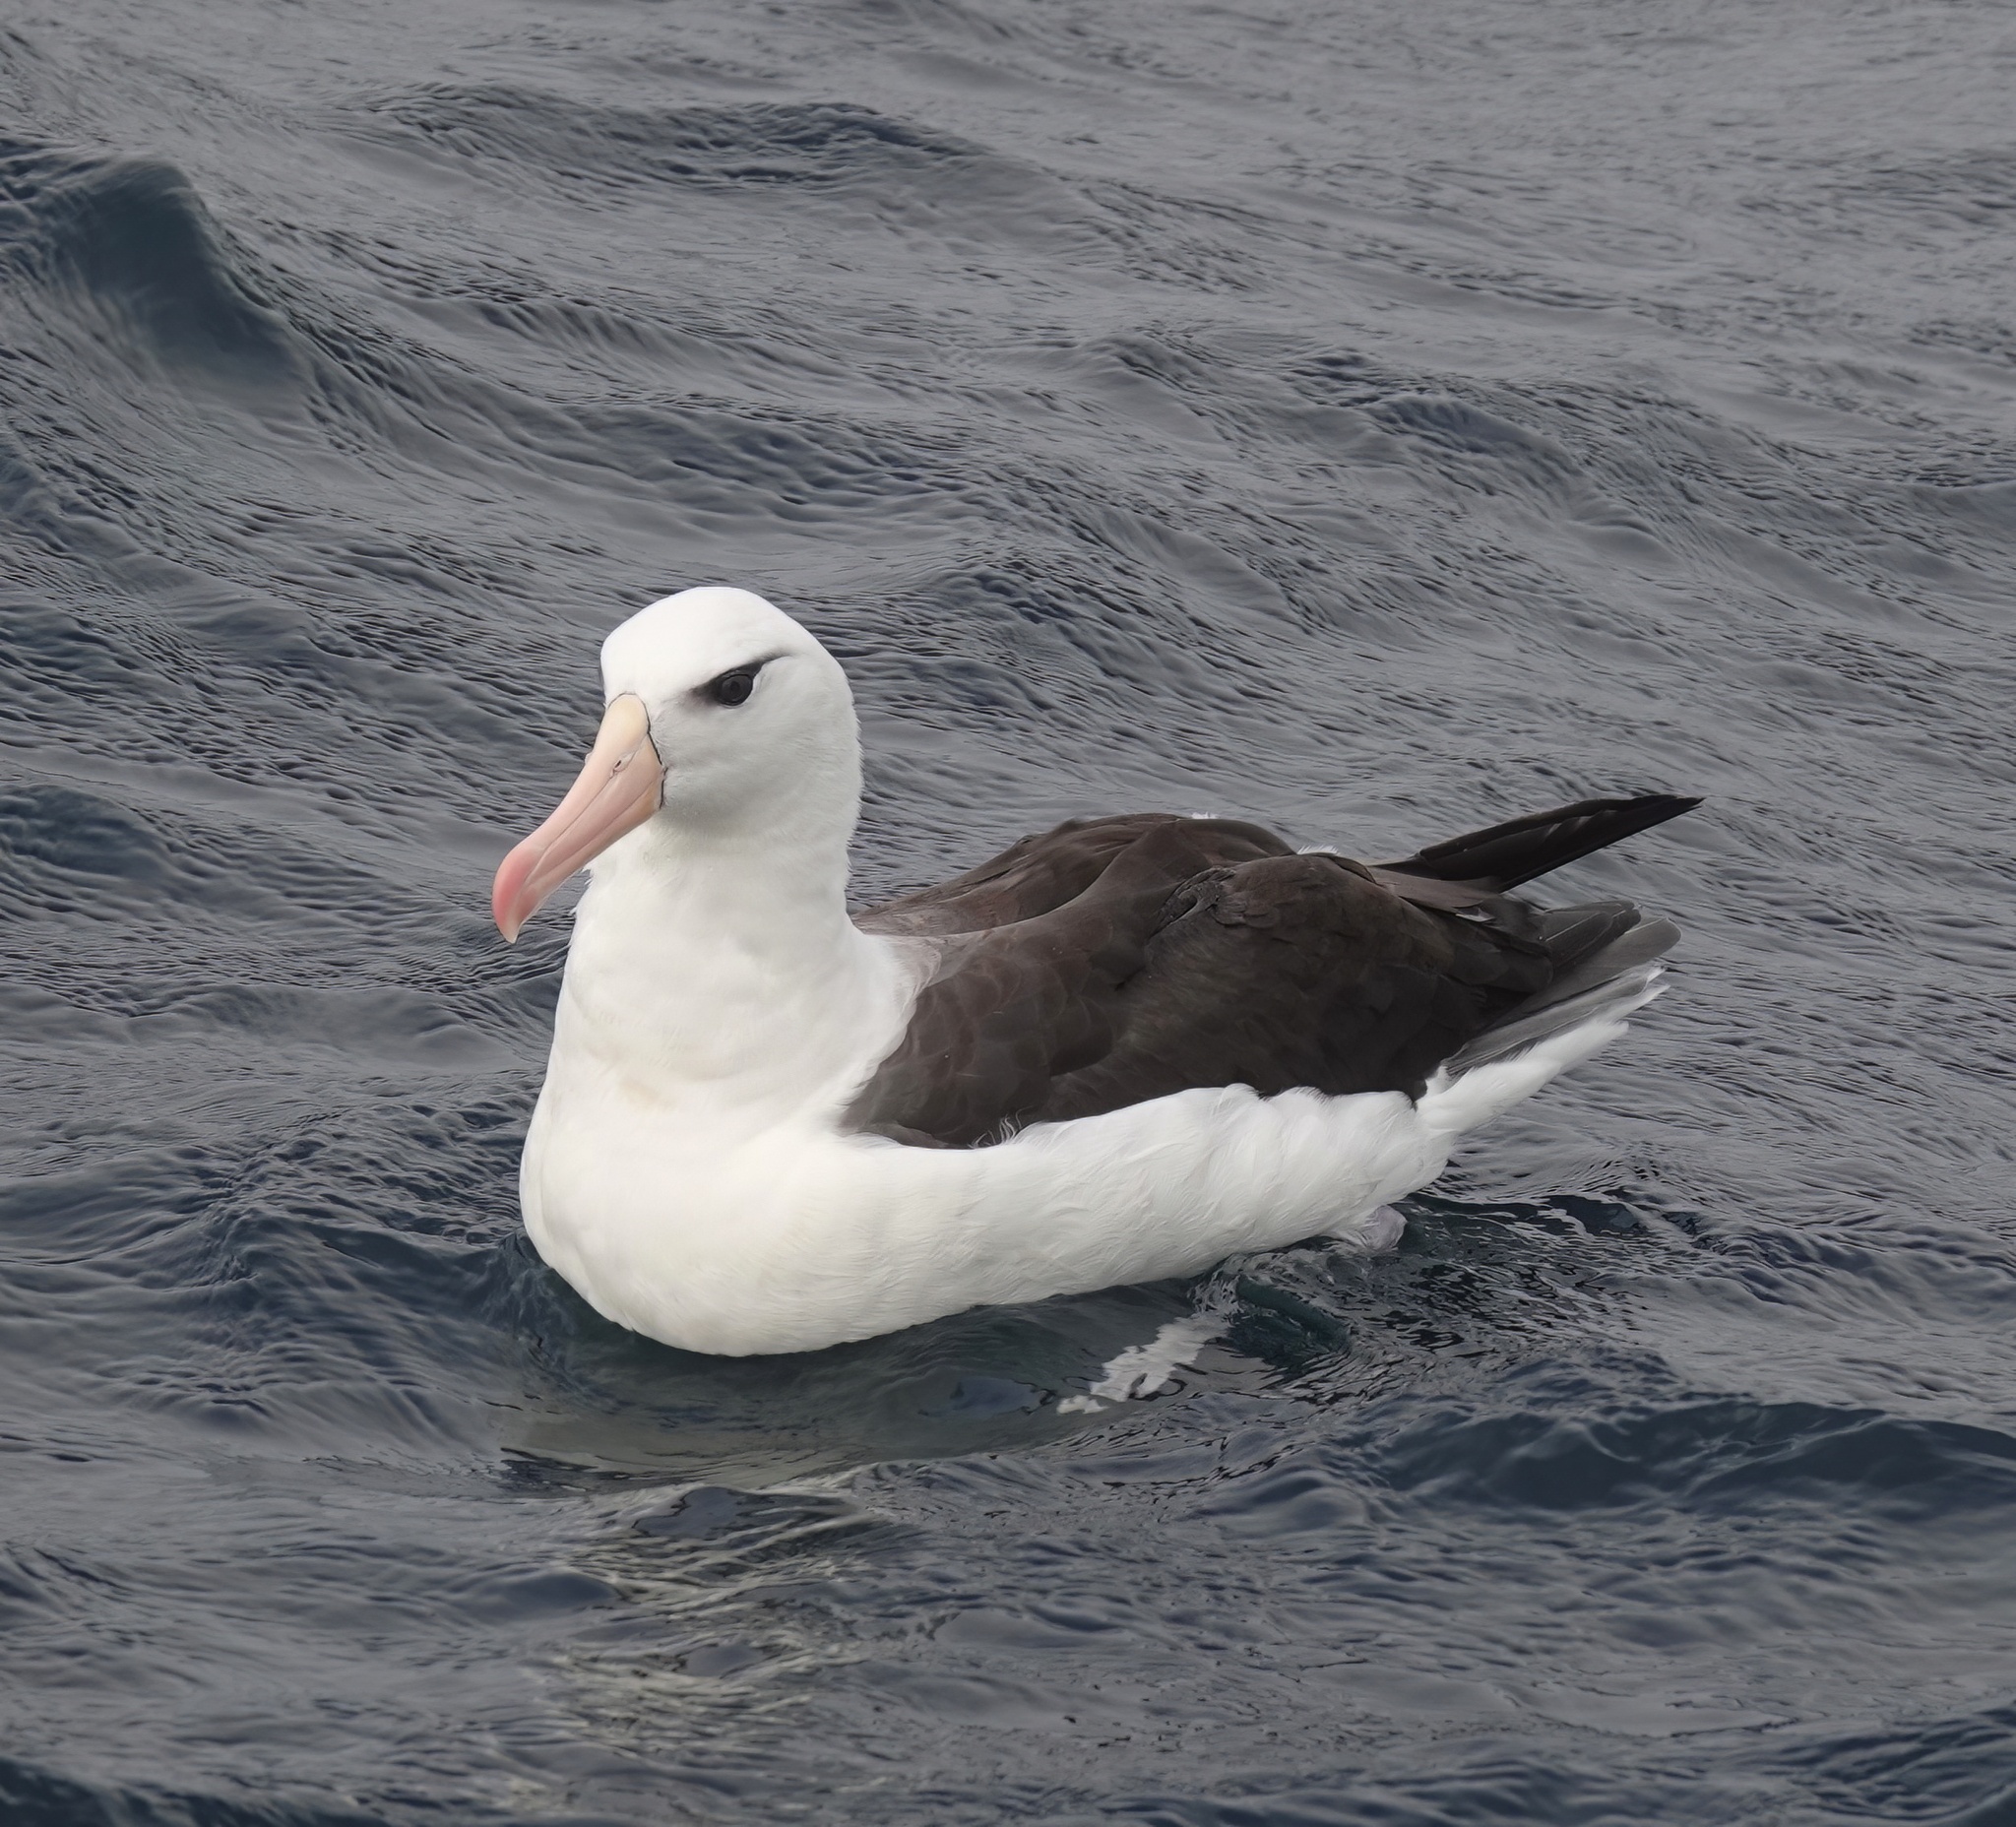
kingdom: Animalia
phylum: Chordata
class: Aves
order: Procellariiformes
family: Diomedeidae
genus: Thalassarche
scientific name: Thalassarche melanophris
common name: Black-browed albatross
